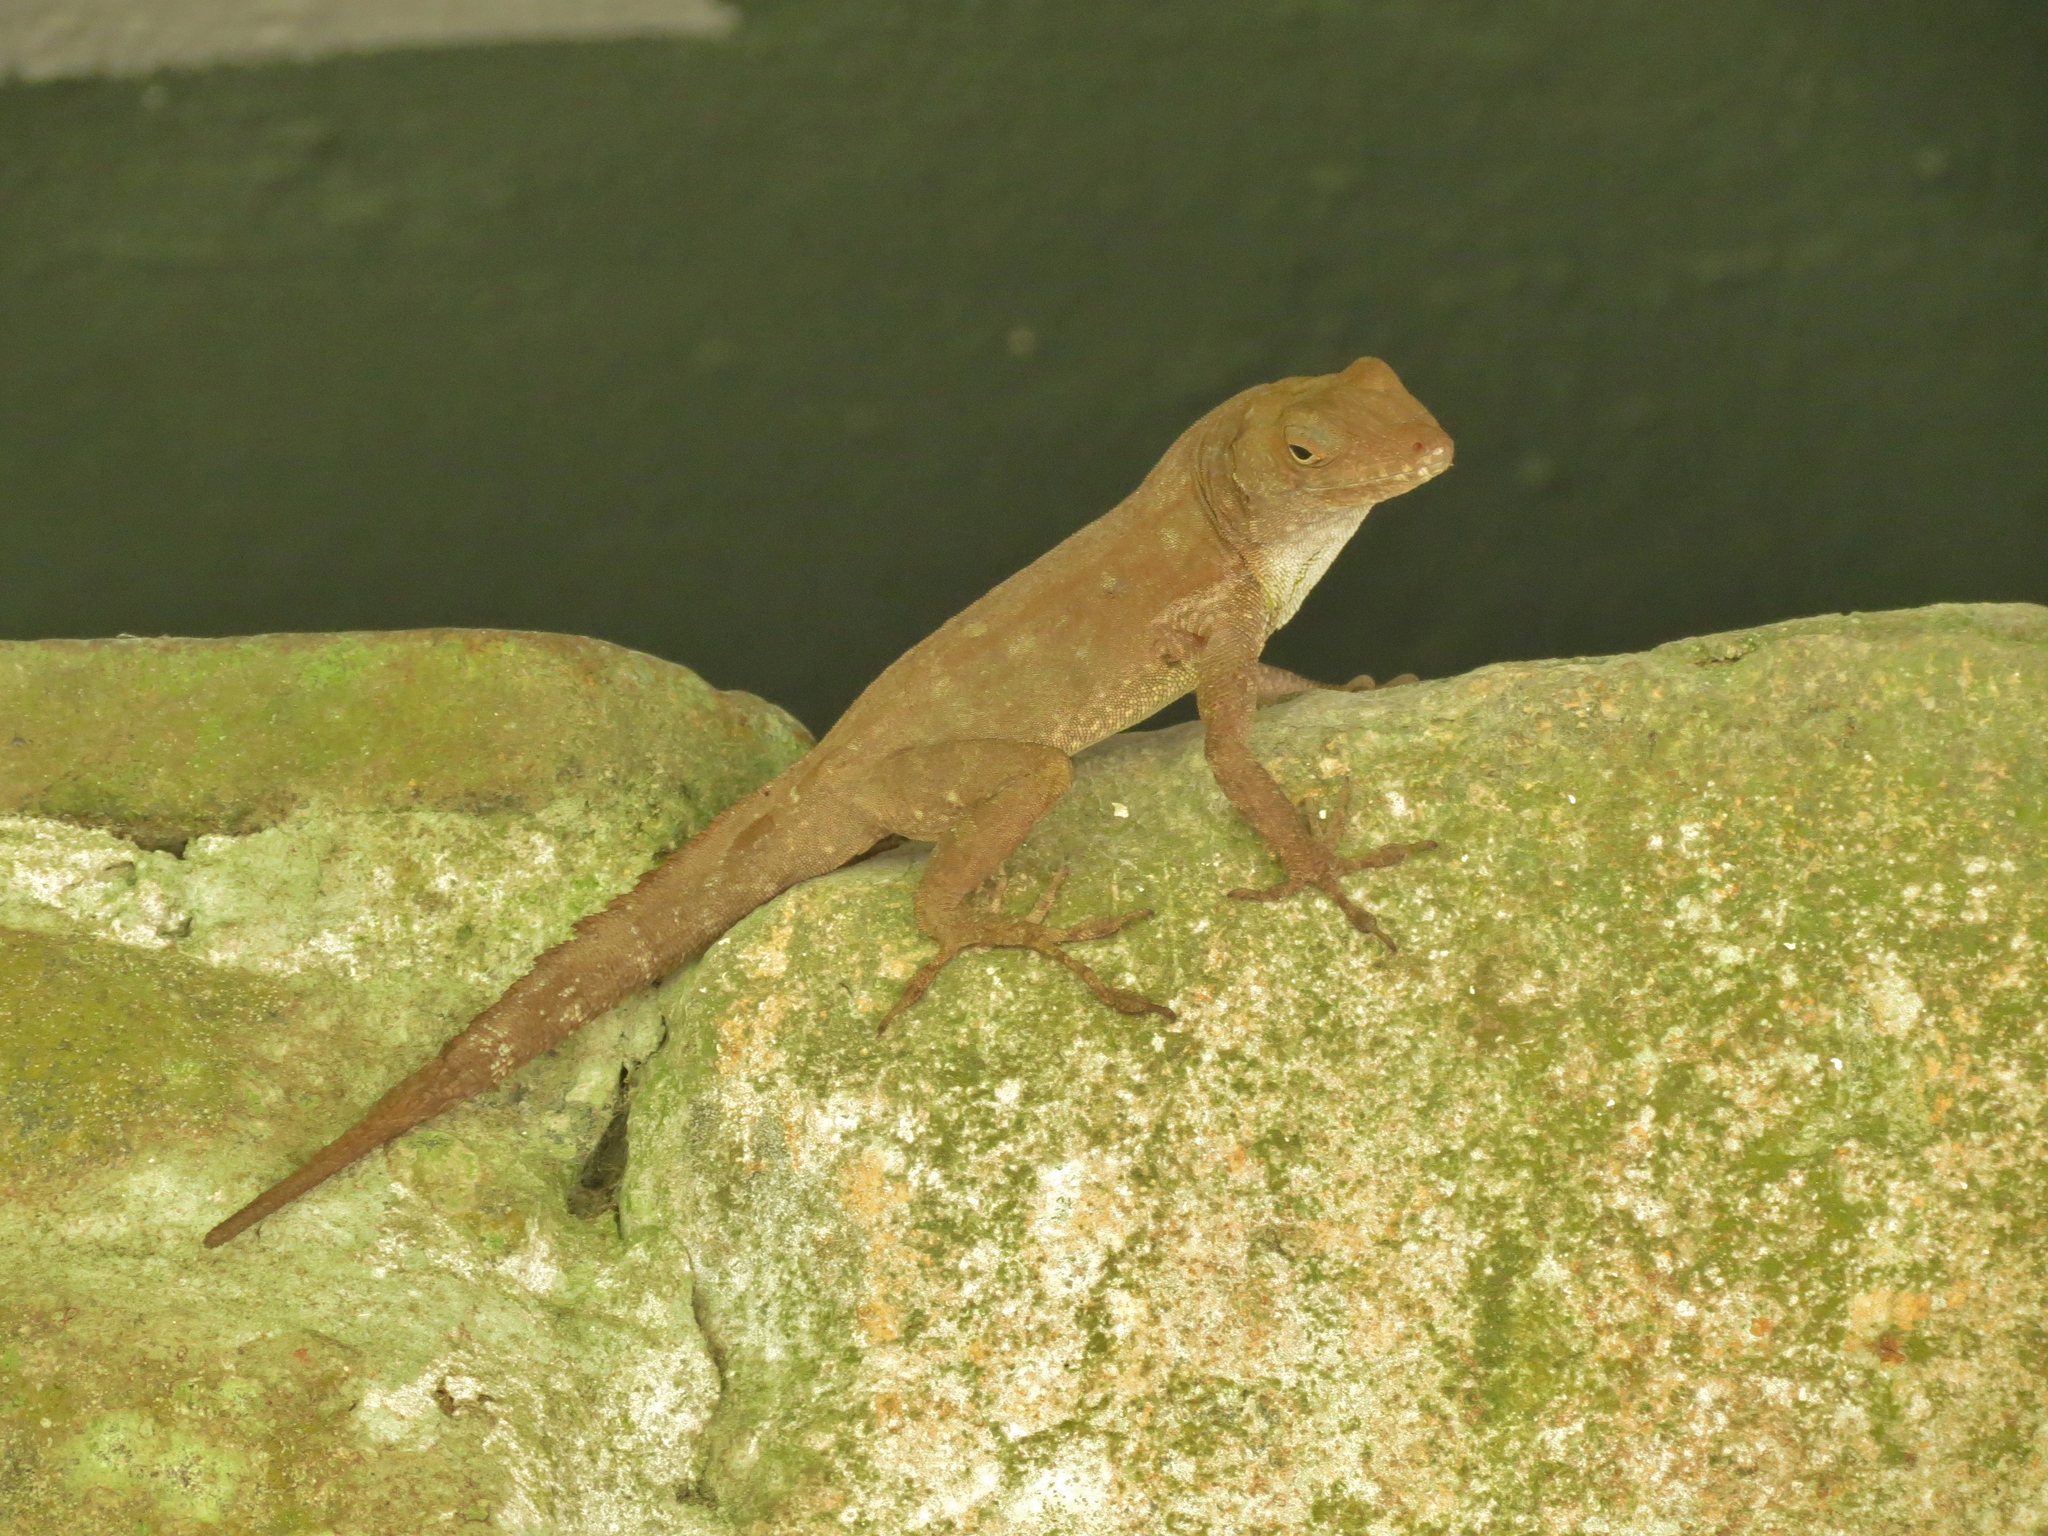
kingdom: Animalia
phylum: Chordata
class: Squamata
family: Dactyloidae
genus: Anolis
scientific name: Anolis cristatellus
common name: Crested anole
